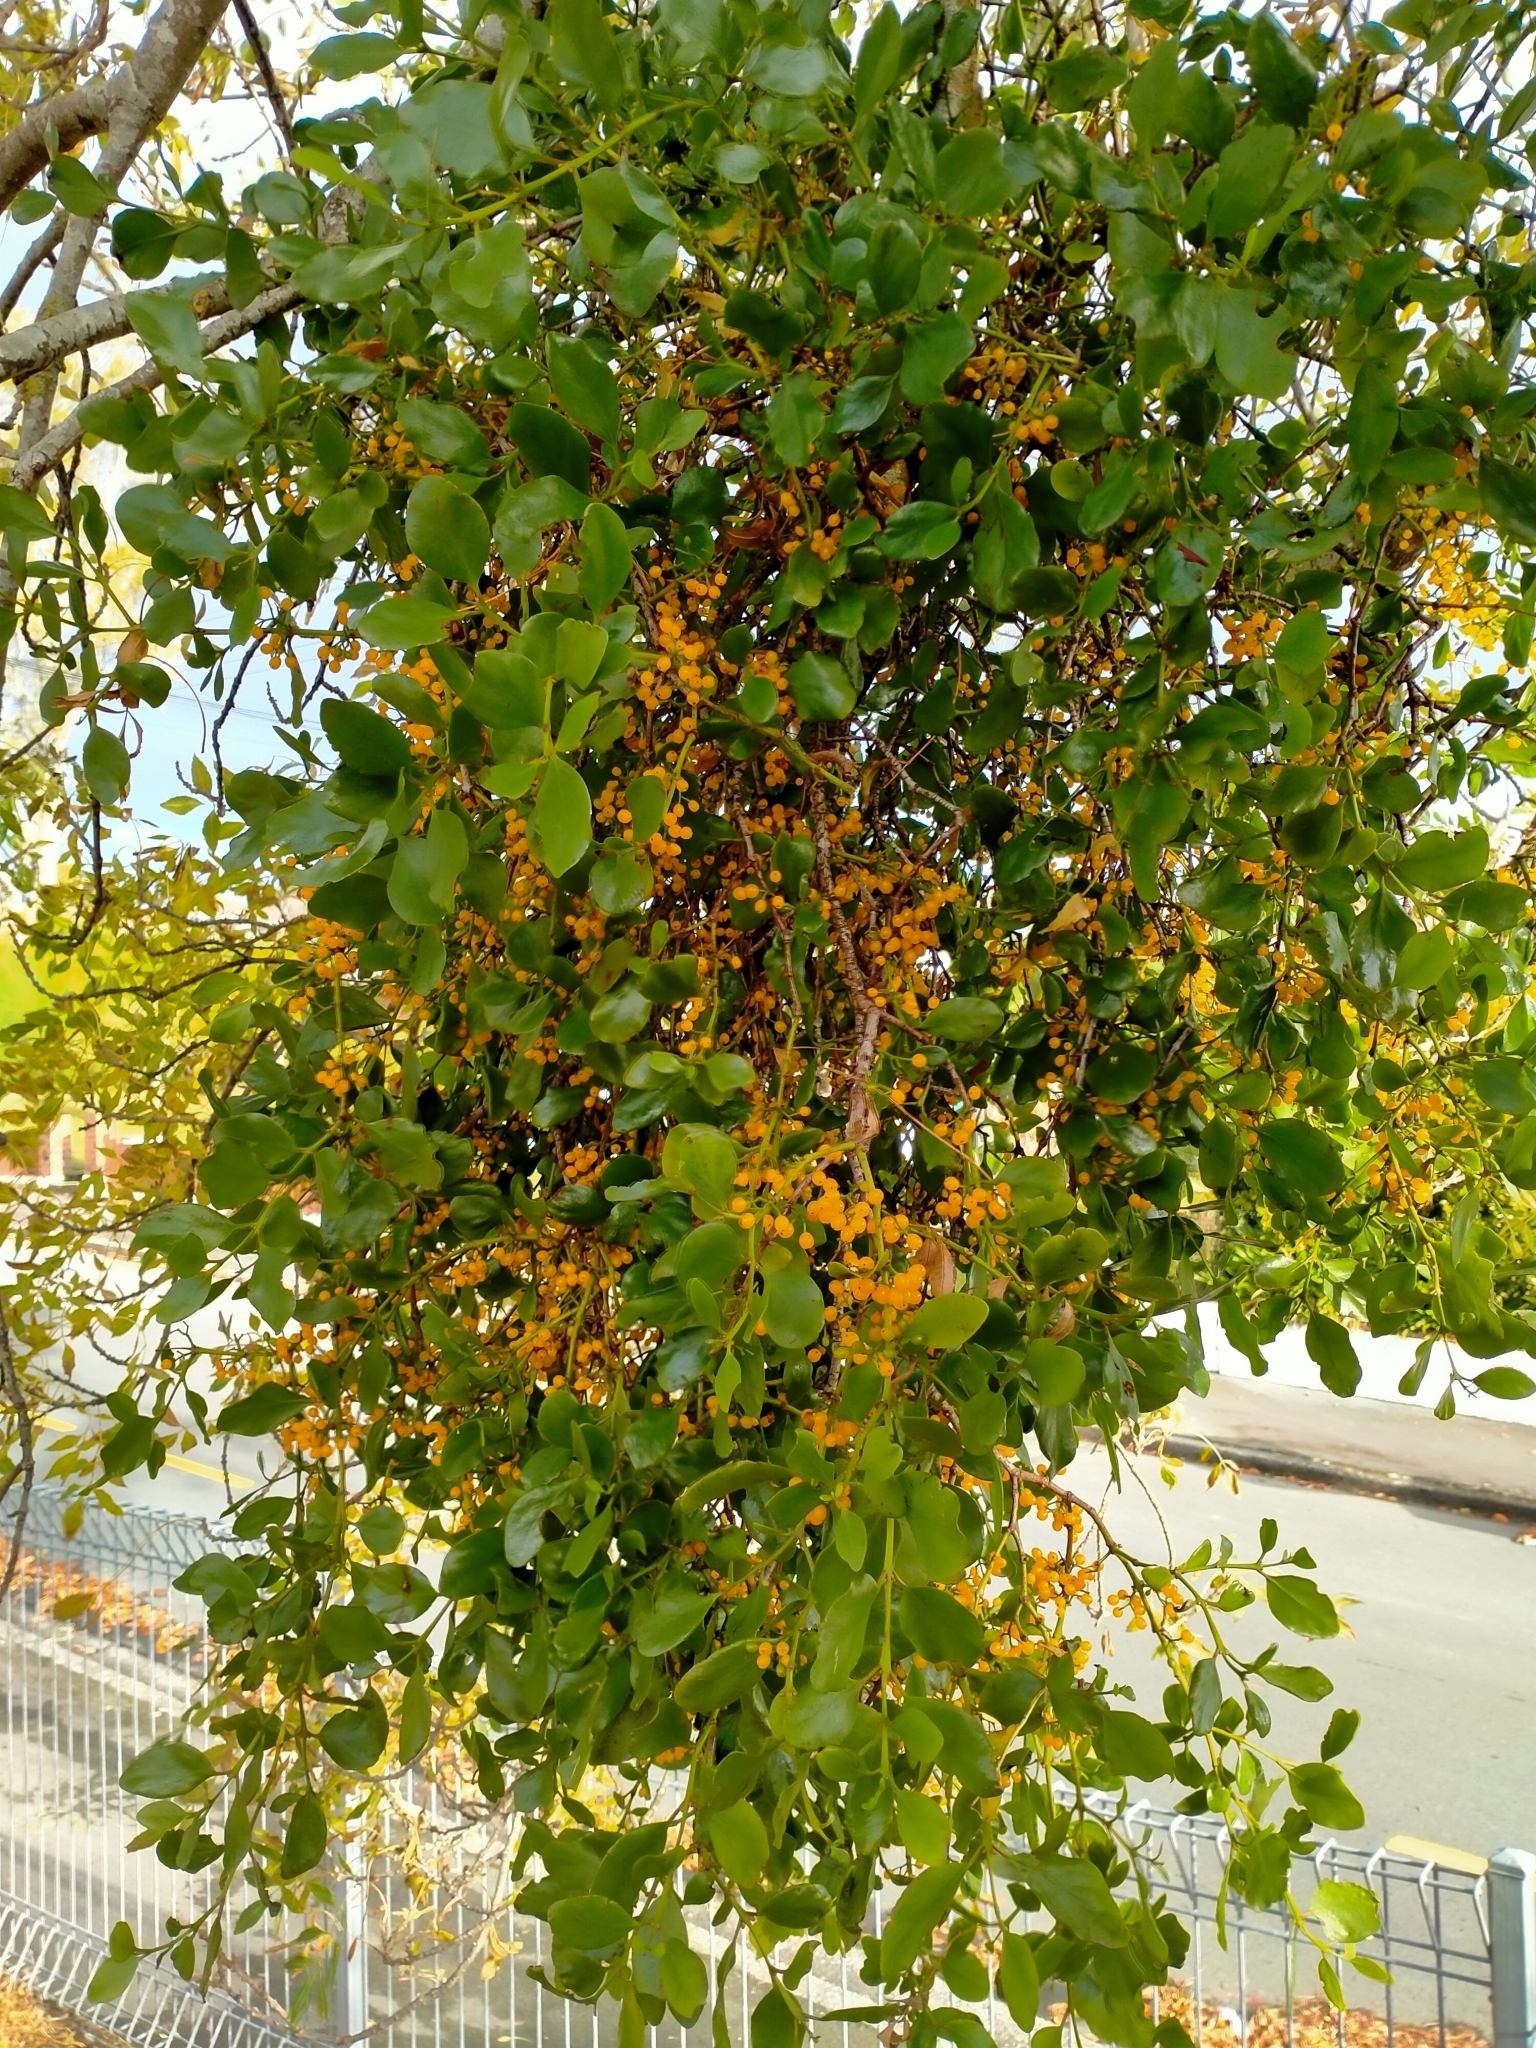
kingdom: Plantae
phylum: Tracheophyta
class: Magnoliopsida
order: Santalales
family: Loranthaceae
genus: Ileostylus
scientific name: Ileostylus micranthus
